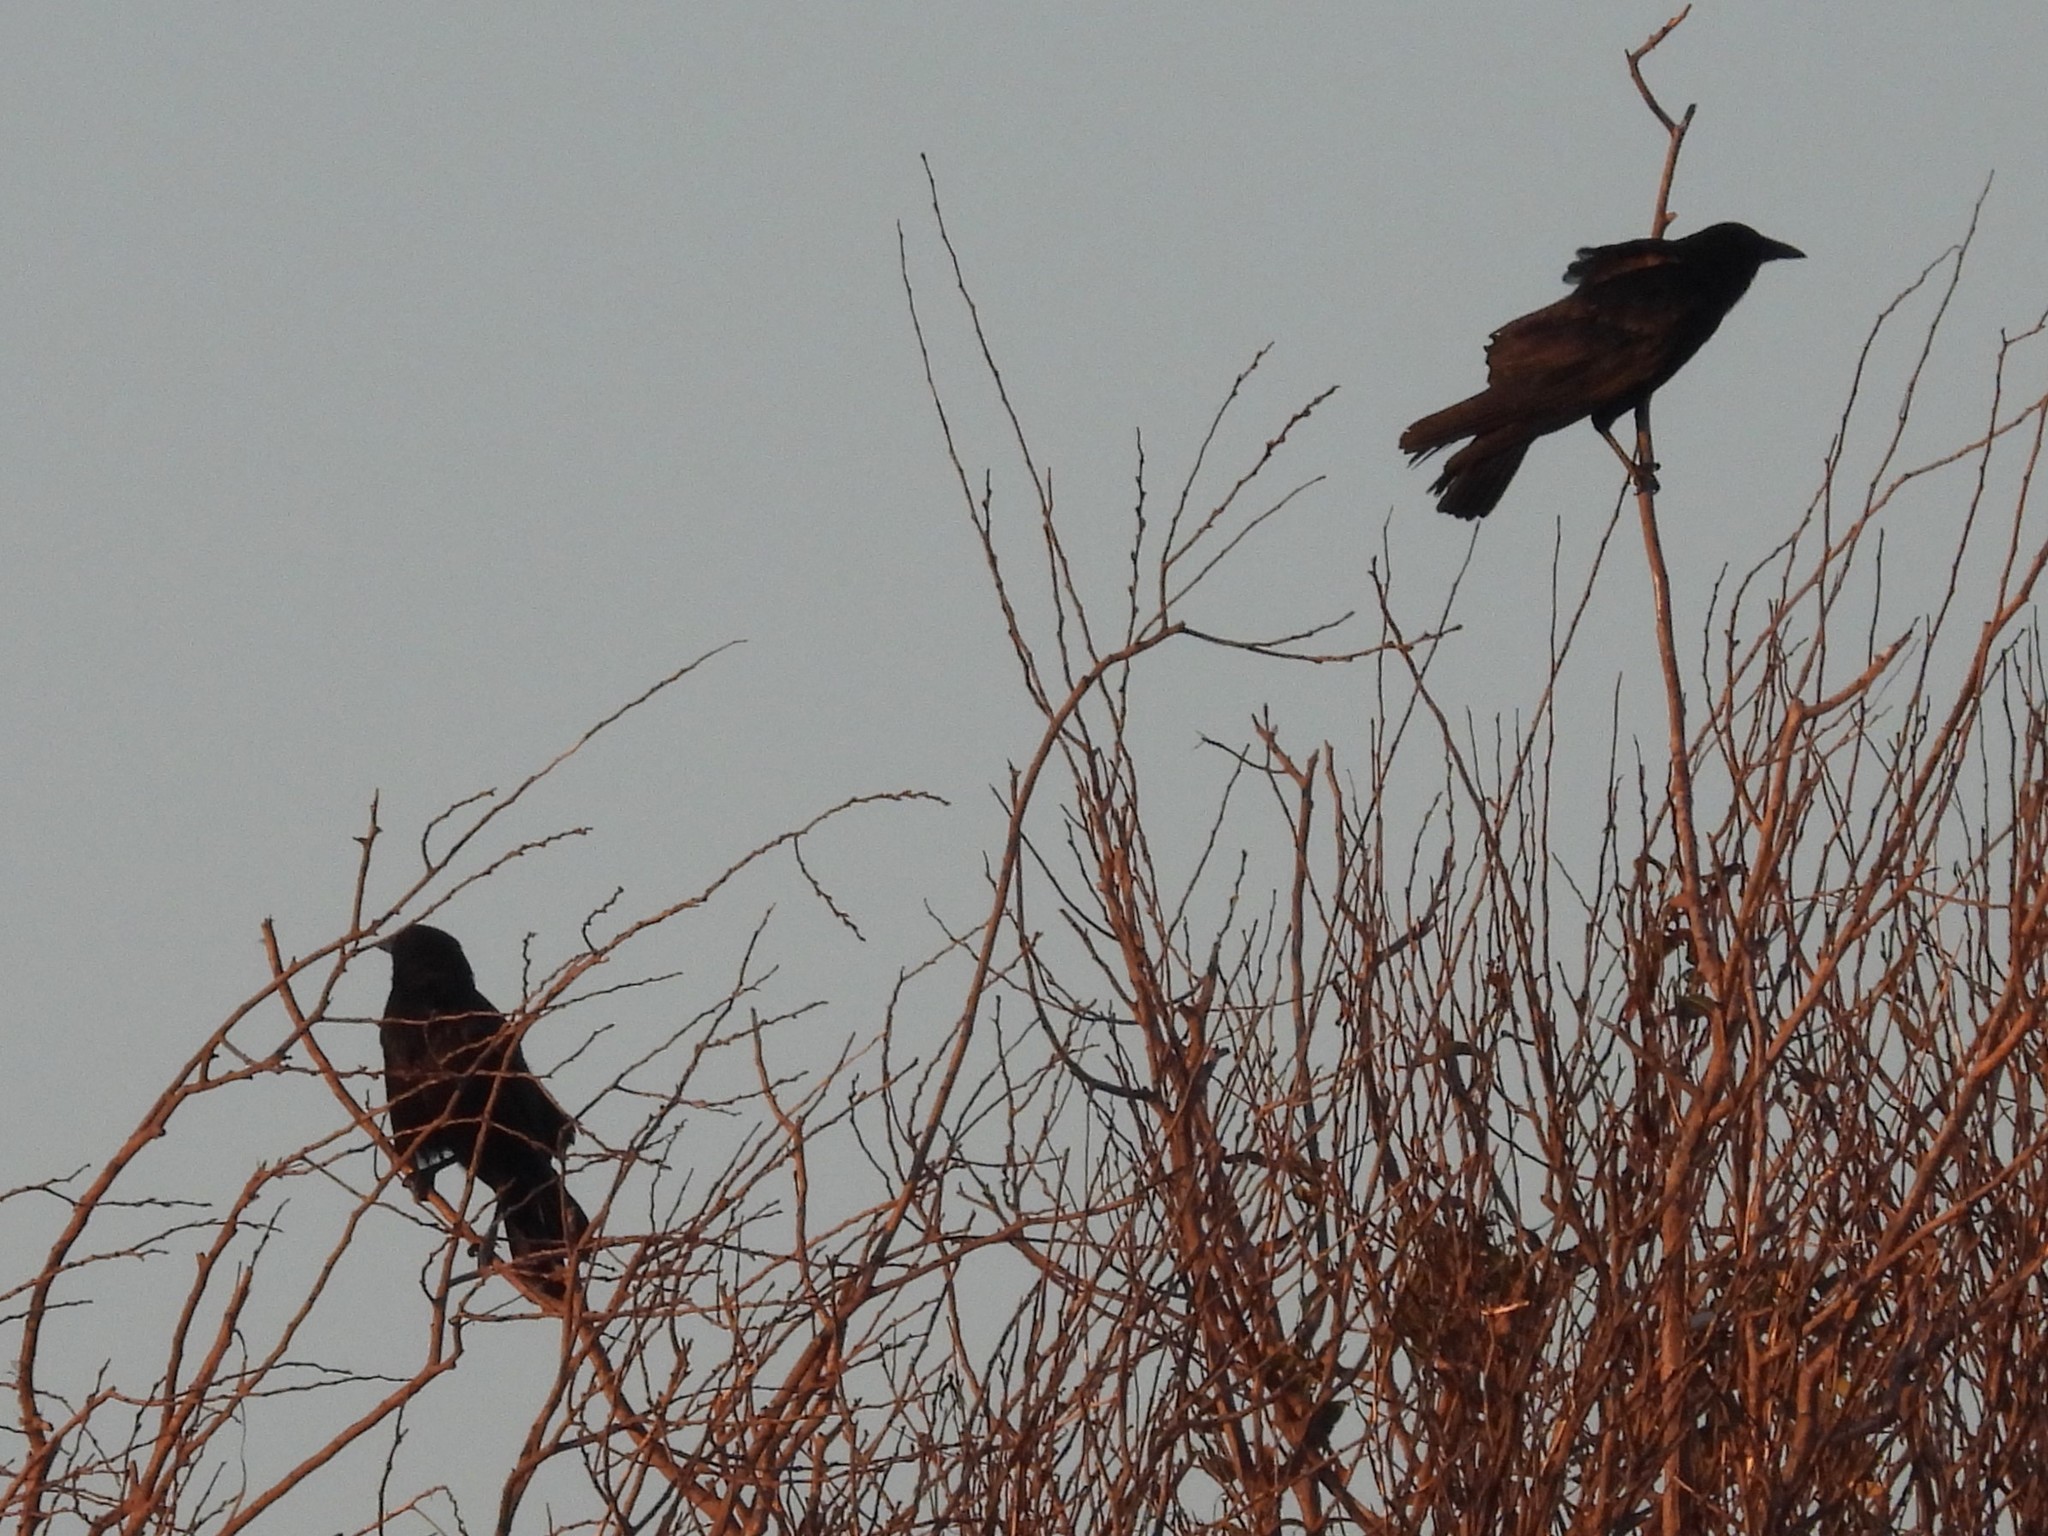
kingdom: Animalia
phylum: Chordata
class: Aves
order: Passeriformes
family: Corvidae
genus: Corvus
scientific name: Corvus brachyrhynchos
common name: American crow
